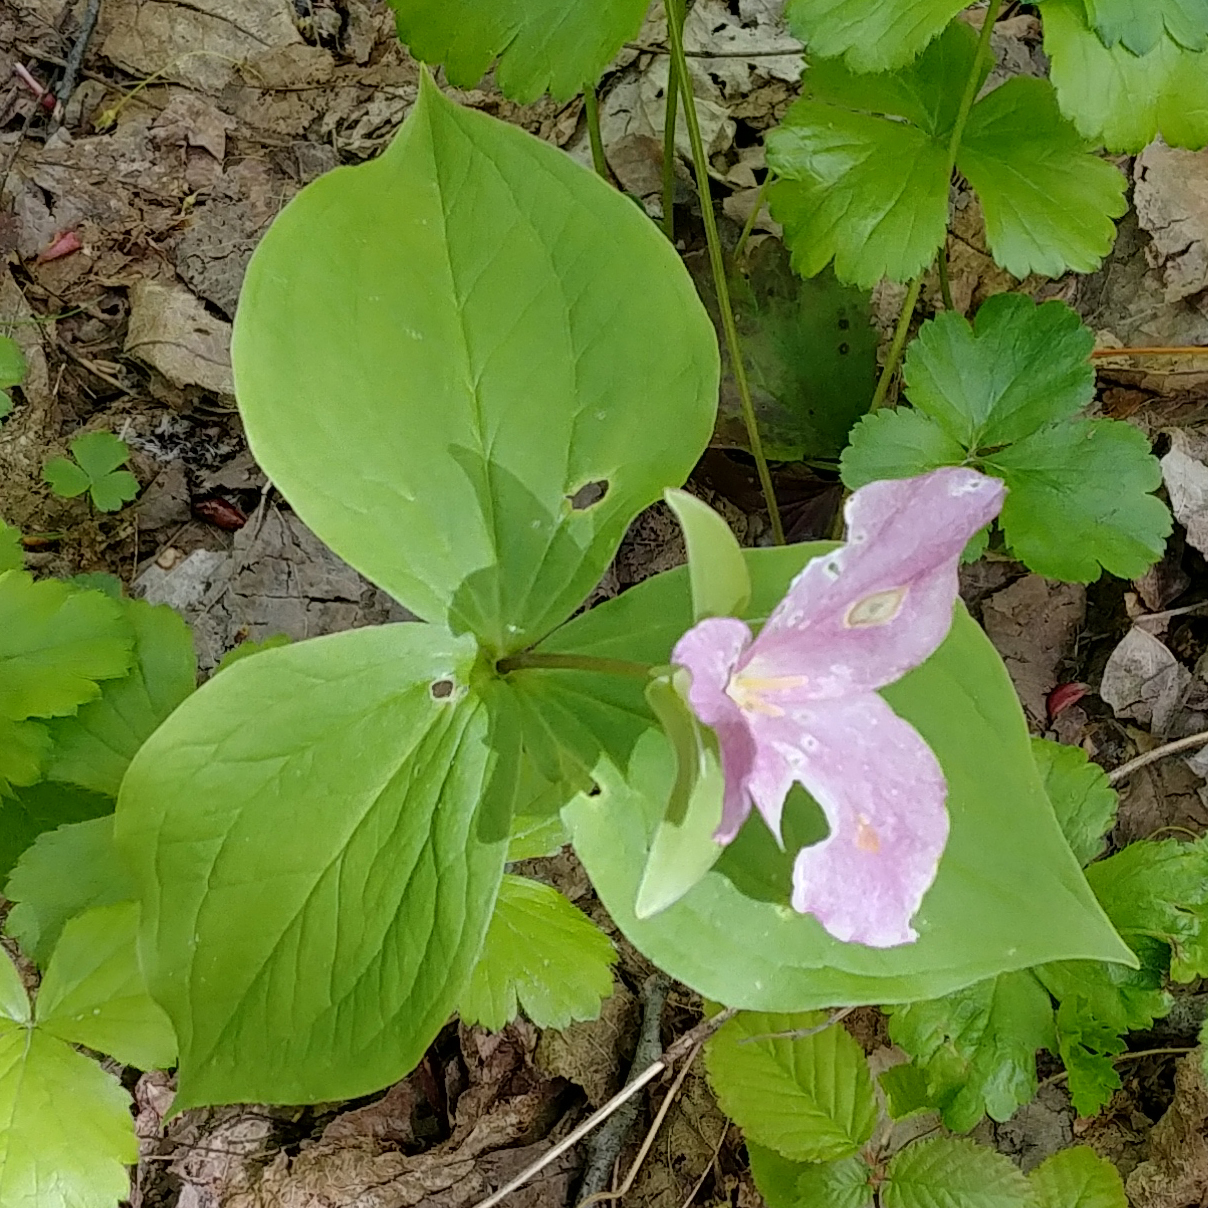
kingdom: Plantae
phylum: Tracheophyta
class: Liliopsida
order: Liliales
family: Melanthiaceae
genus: Trillium
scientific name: Trillium grandiflorum
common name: Great white trillium
